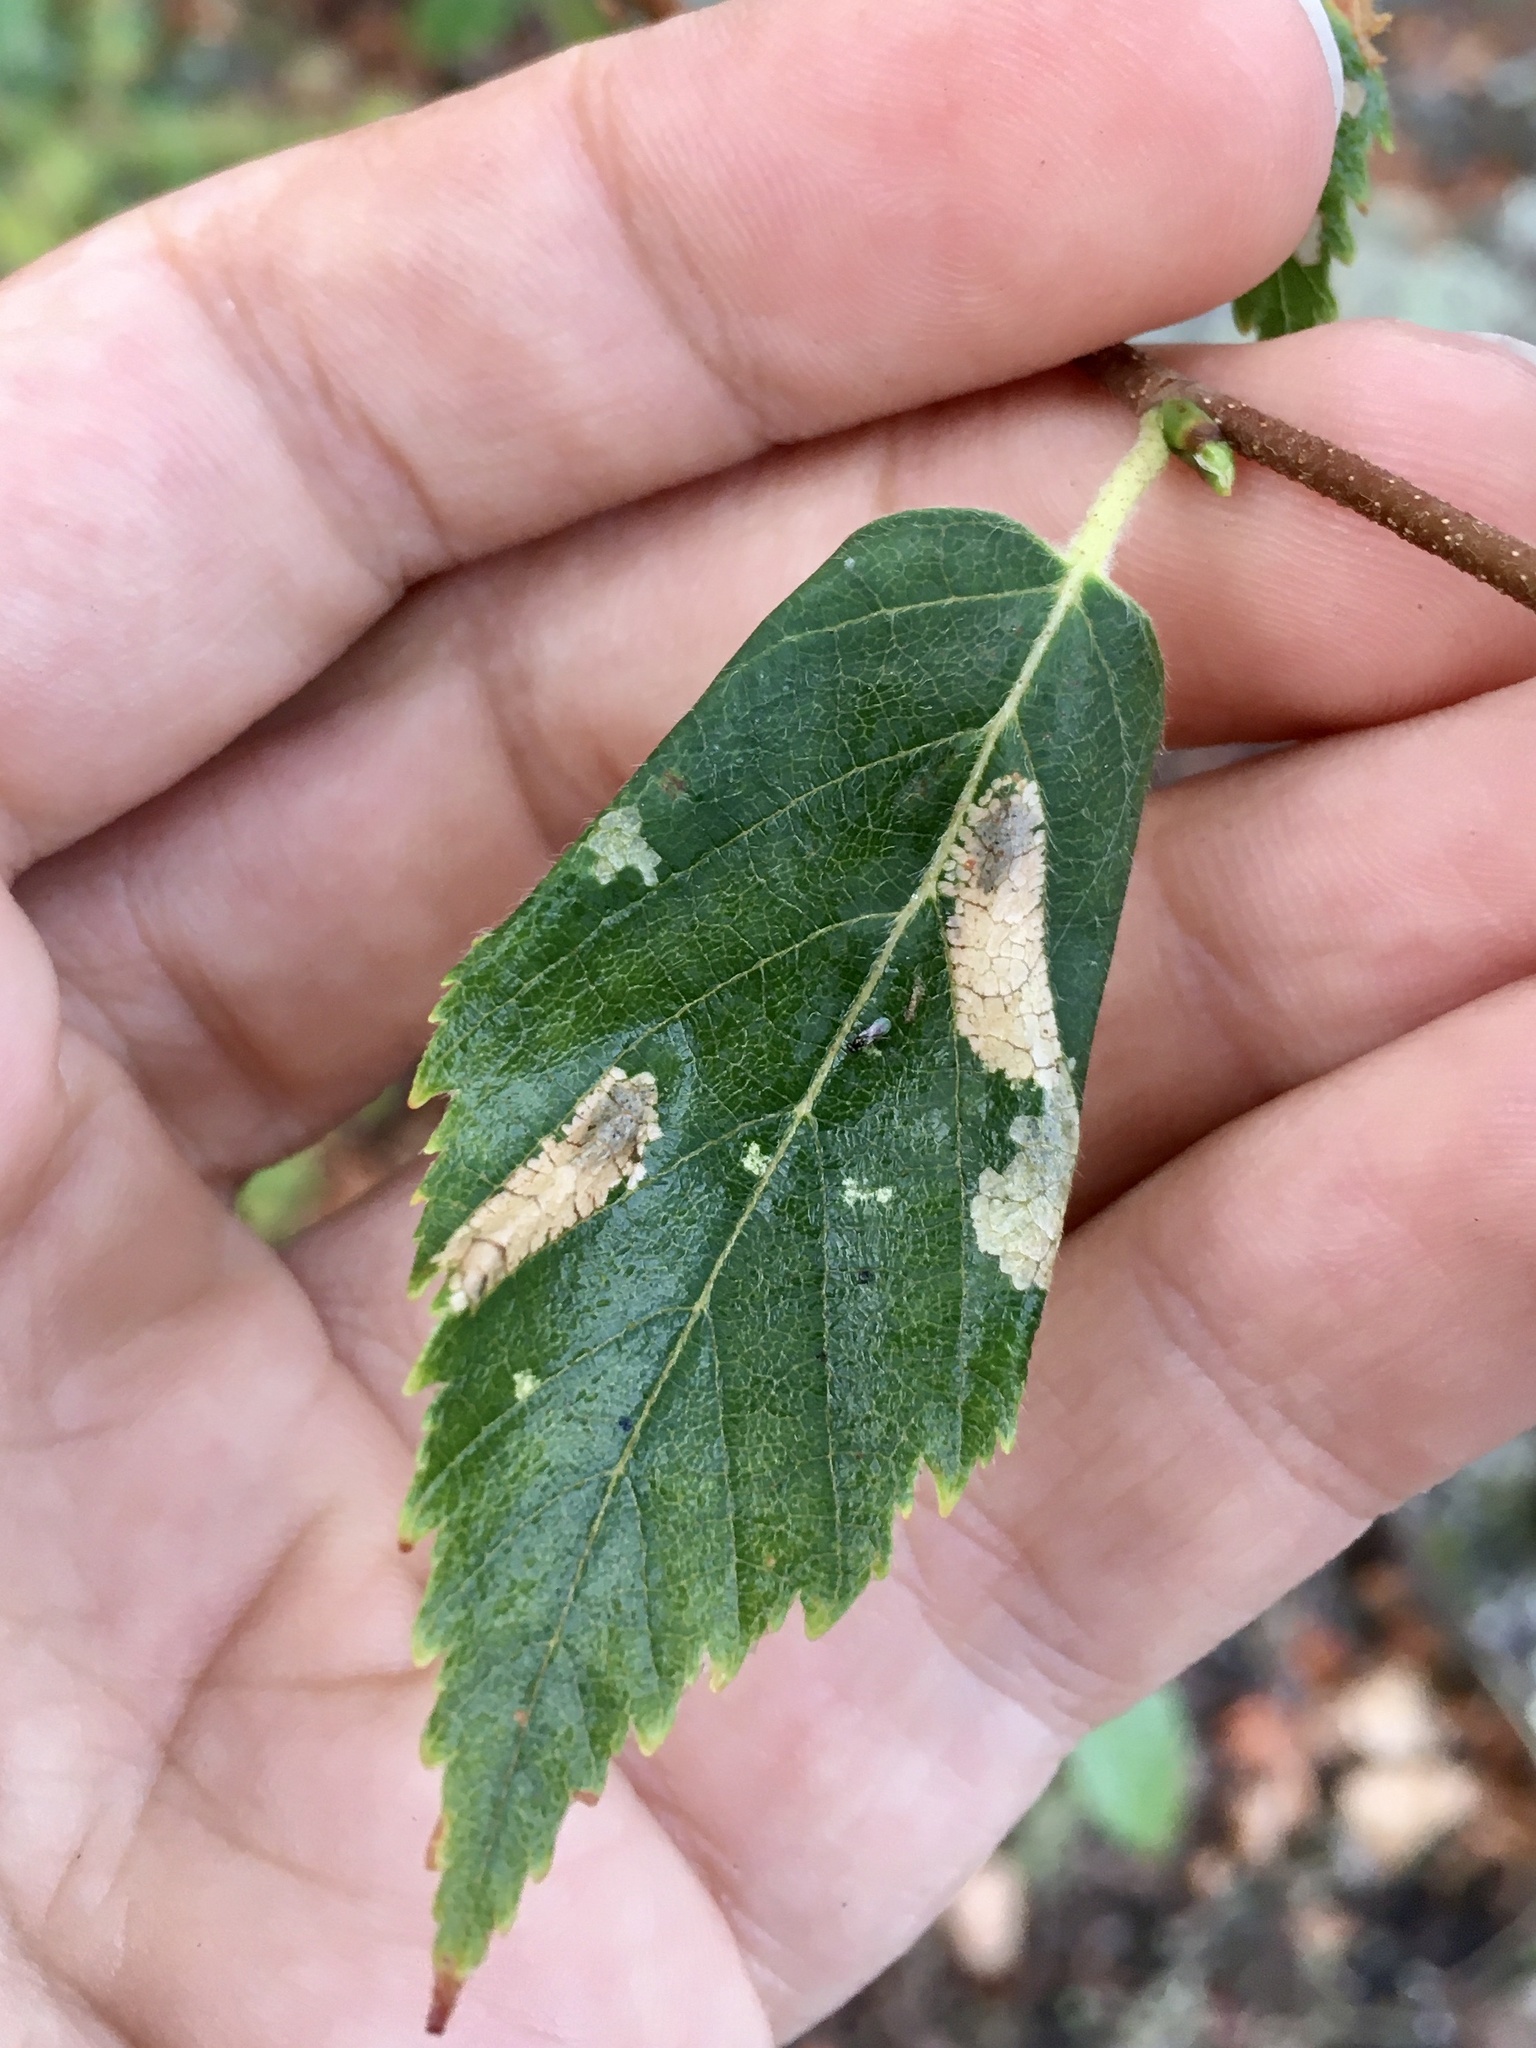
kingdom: Animalia
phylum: Arthropoda
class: Insecta
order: Lepidoptera
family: Gracillariidae
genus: Parornix
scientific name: Parornix
